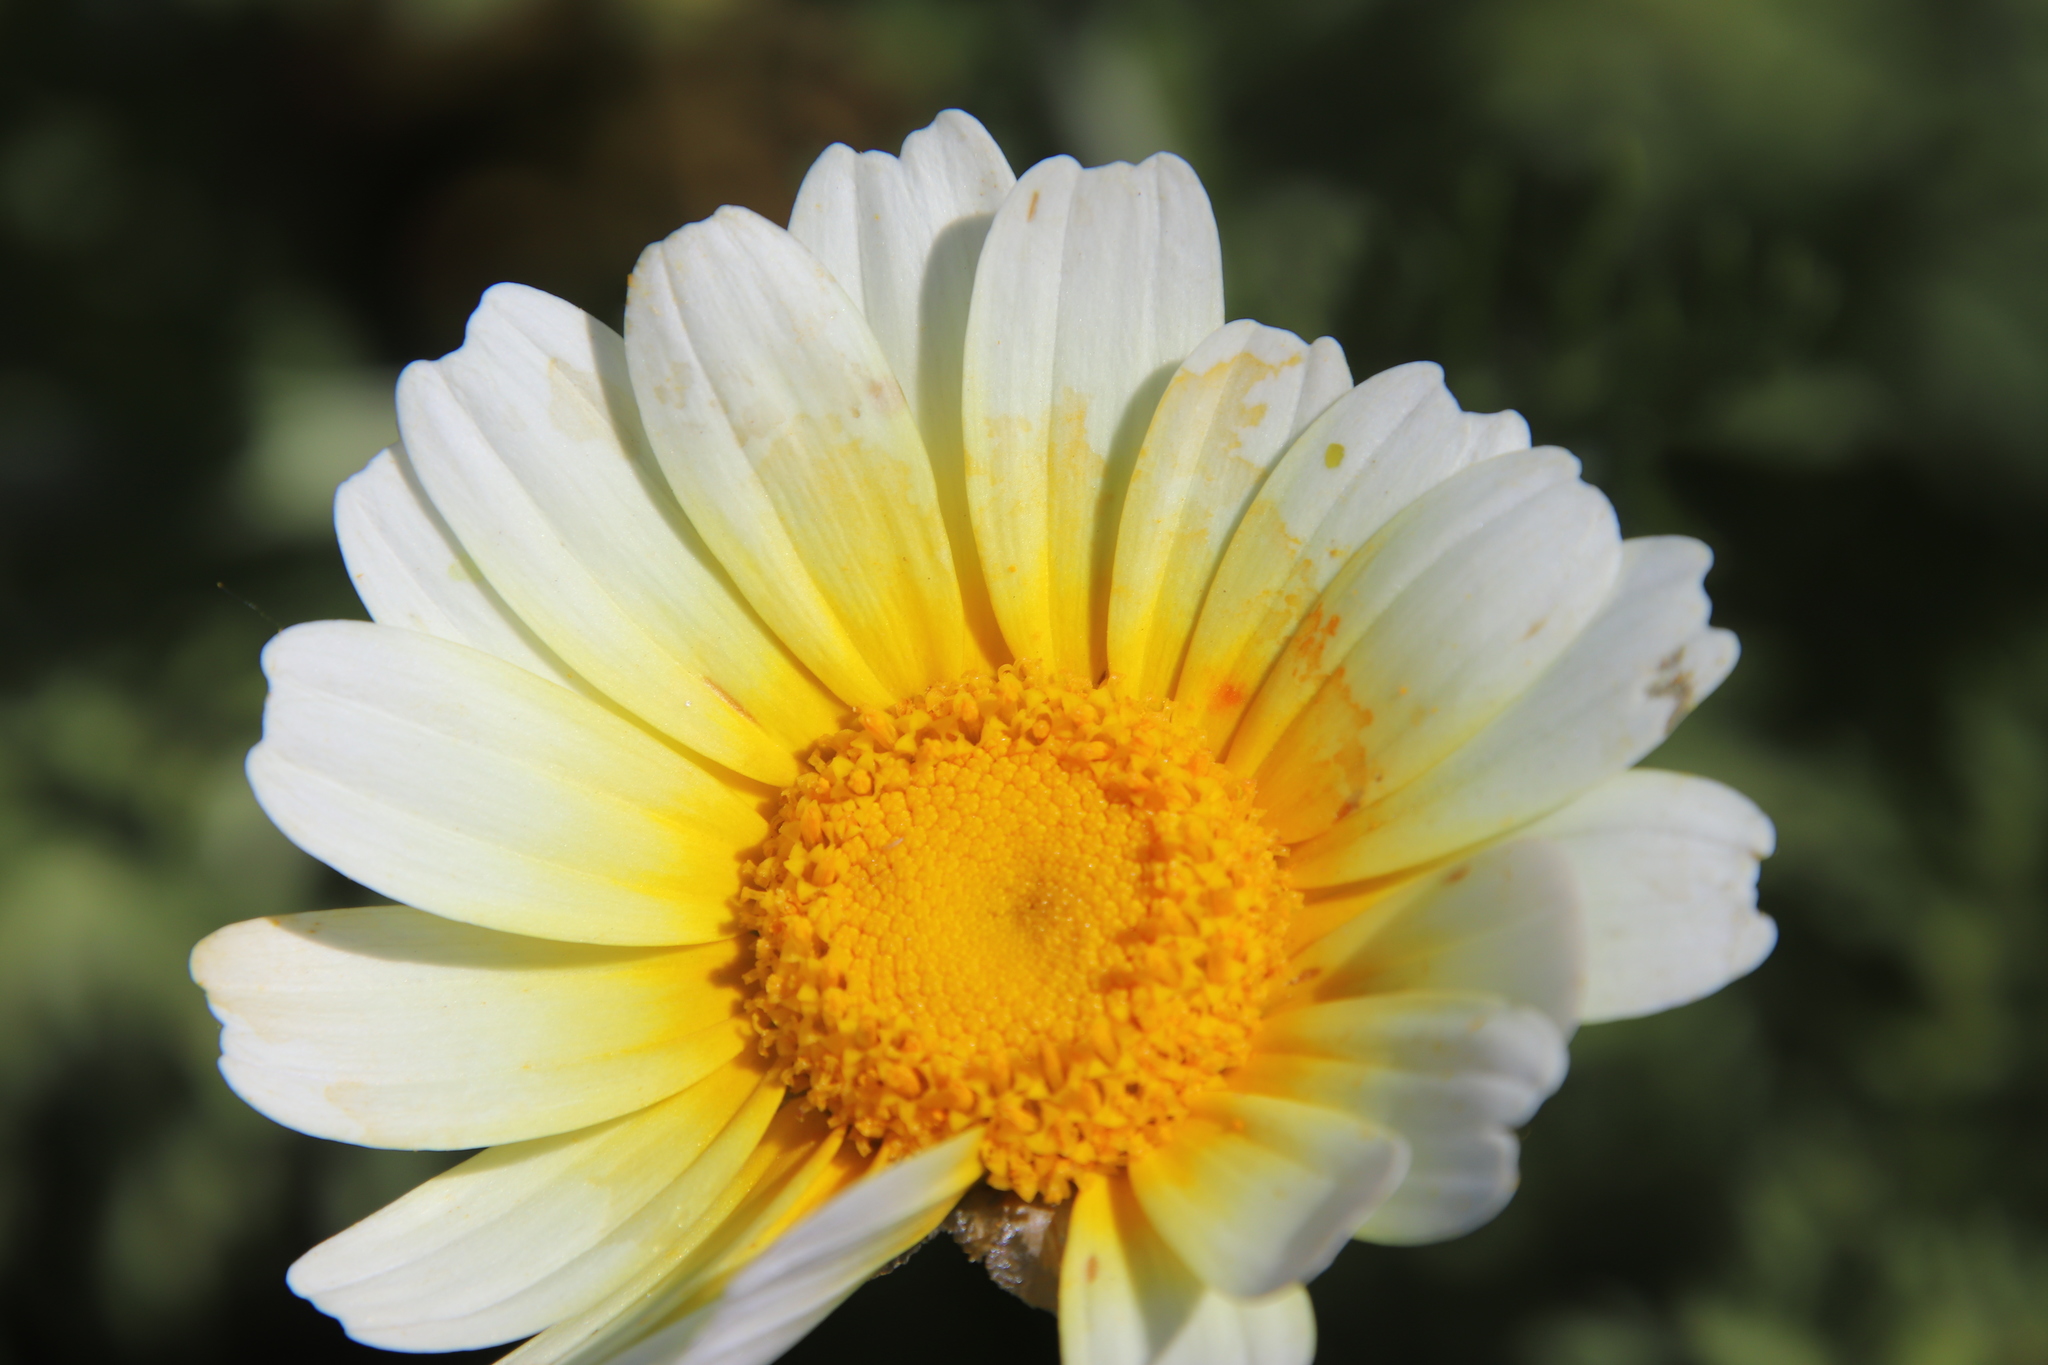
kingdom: Plantae
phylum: Tracheophyta
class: Magnoliopsida
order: Asterales
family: Asteraceae
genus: Glebionis
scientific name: Glebionis coronaria
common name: Crowndaisy
